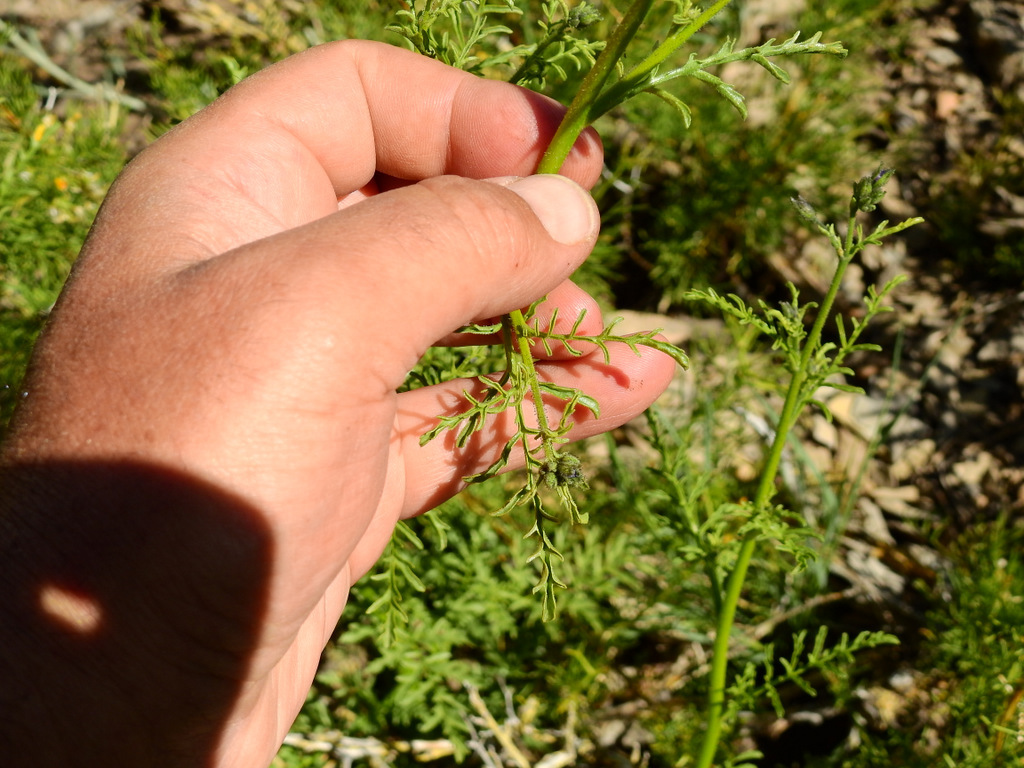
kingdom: Plantae
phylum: Tracheophyta
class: Magnoliopsida
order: Solanales
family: Solanaceae
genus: Schizanthus
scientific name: Schizanthus grahamii
